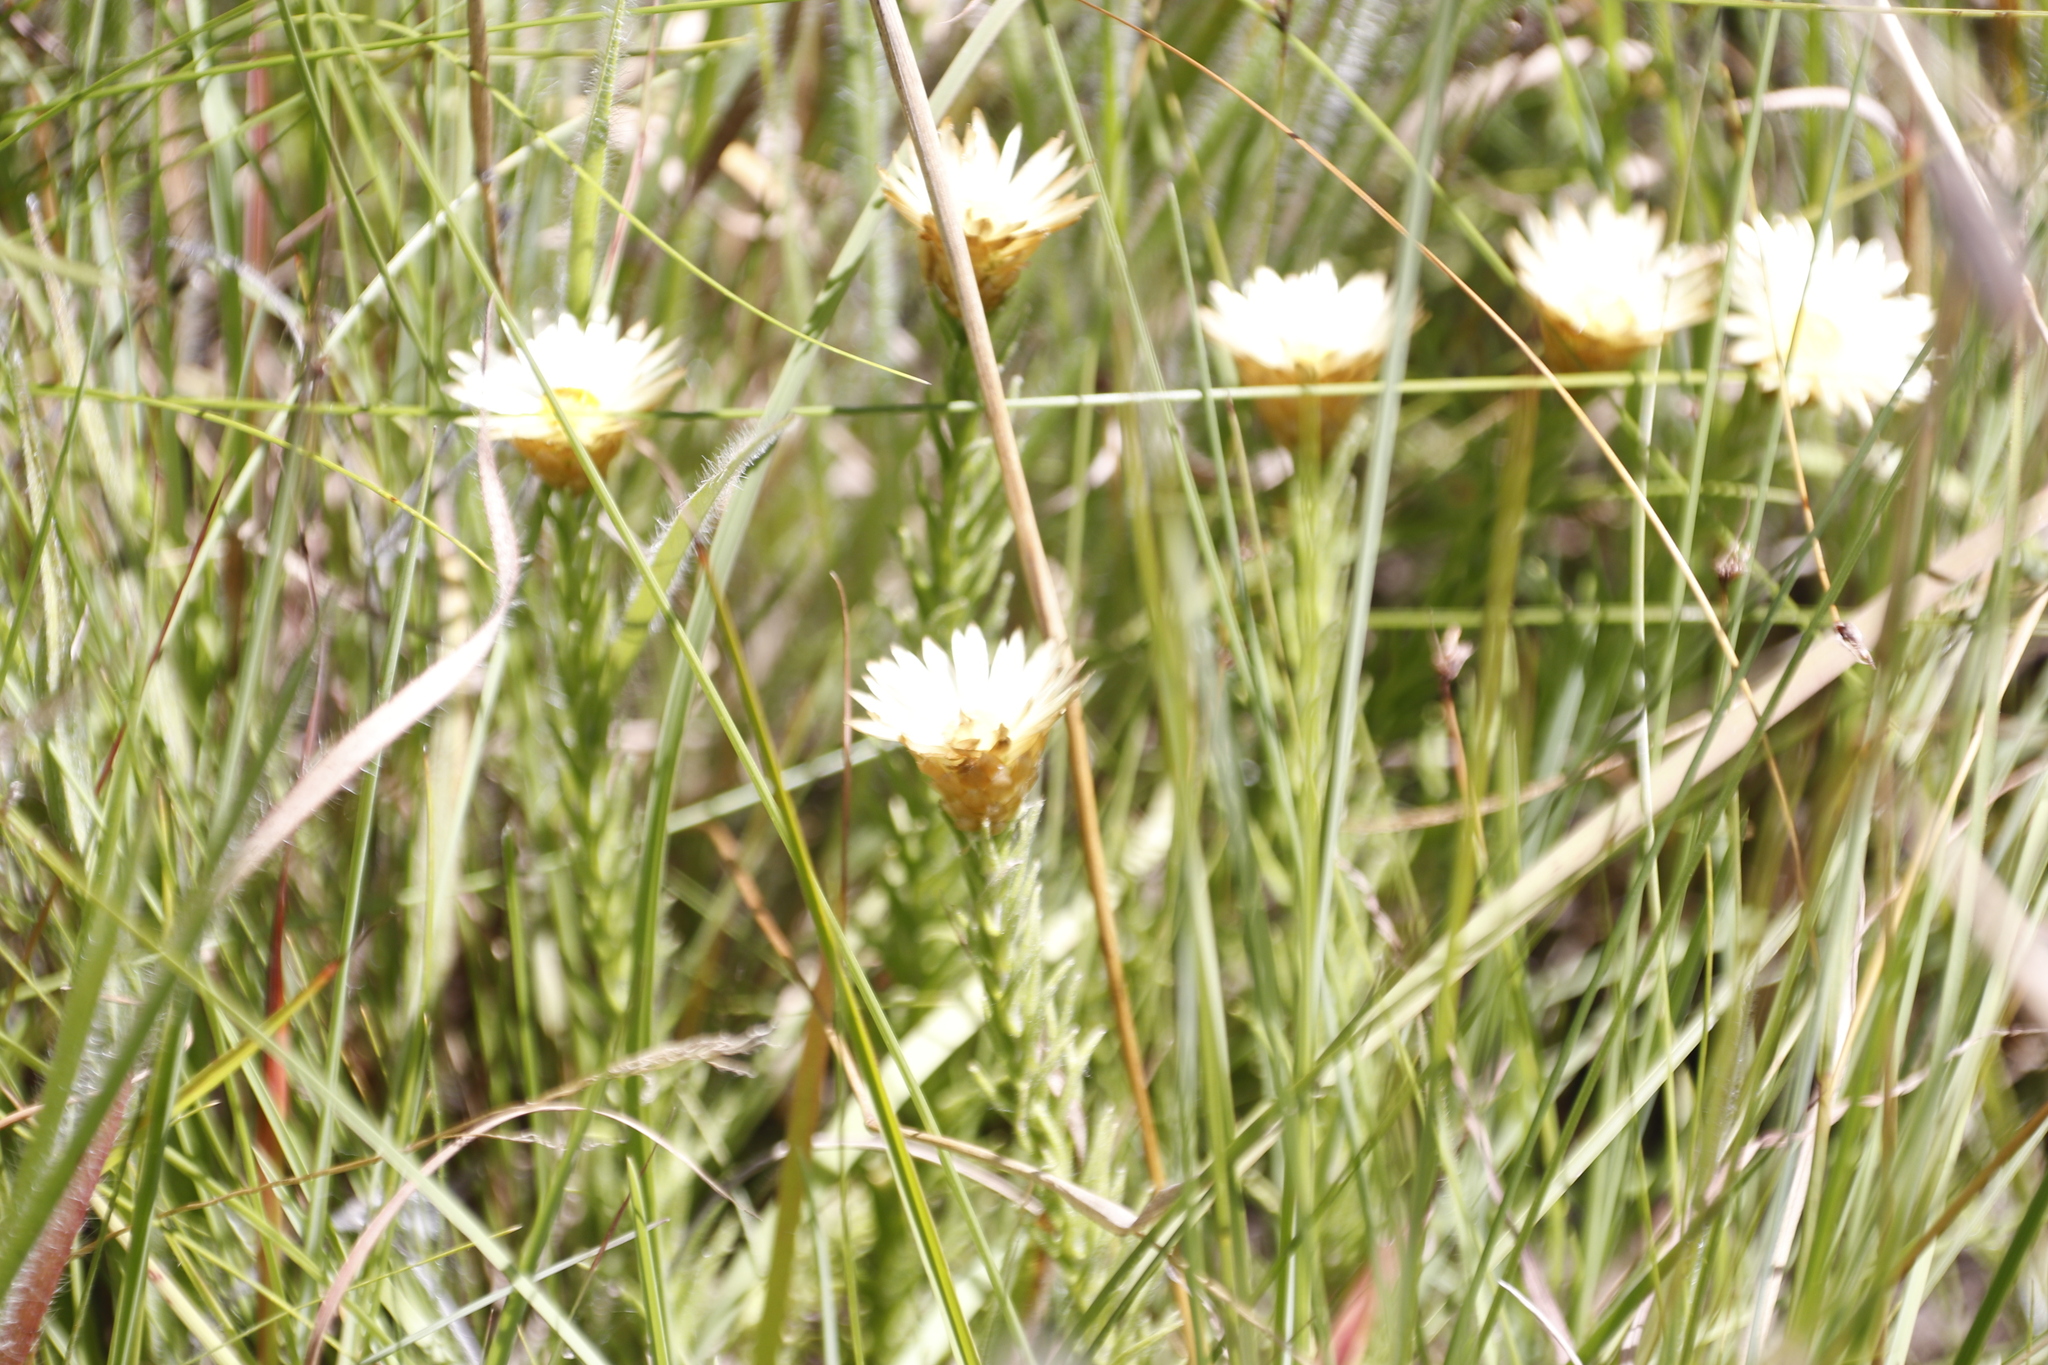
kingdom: Plantae
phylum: Tracheophyta
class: Magnoliopsida
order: Asterales
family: Asteraceae
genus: Helichrysum
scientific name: Helichrysum herbaceum
